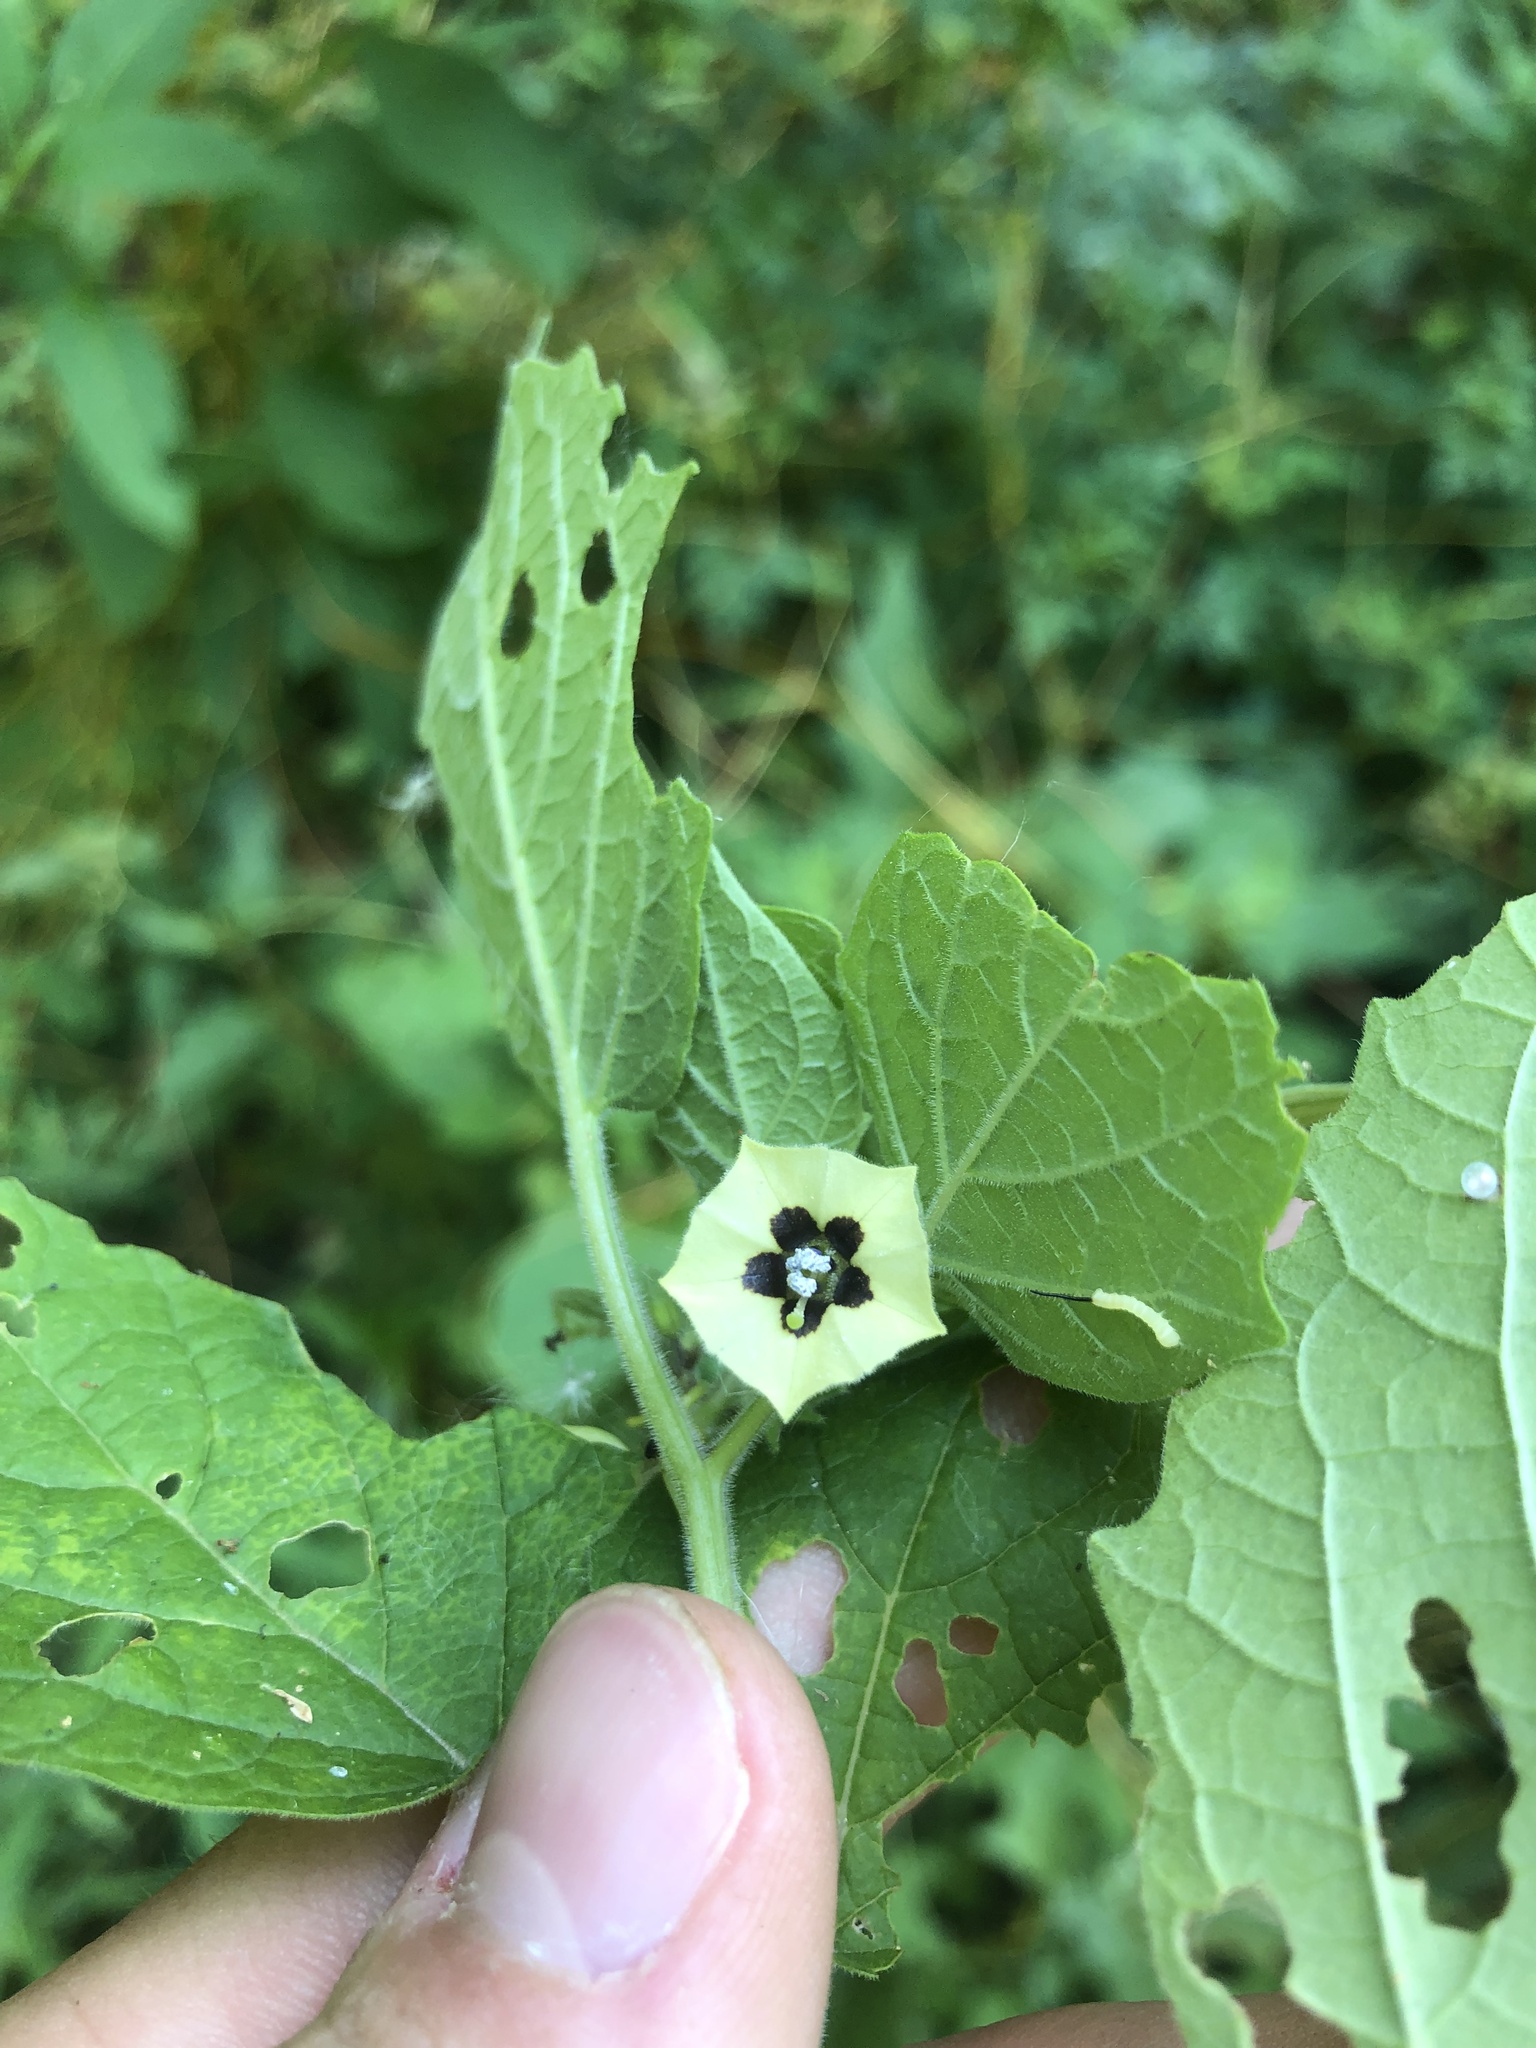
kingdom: Plantae
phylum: Tracheophyta
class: Magnoliopsida
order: Solanales
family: Solanaceae
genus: Physalis
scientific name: Physalis pubescens
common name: Downy ground-cherry
